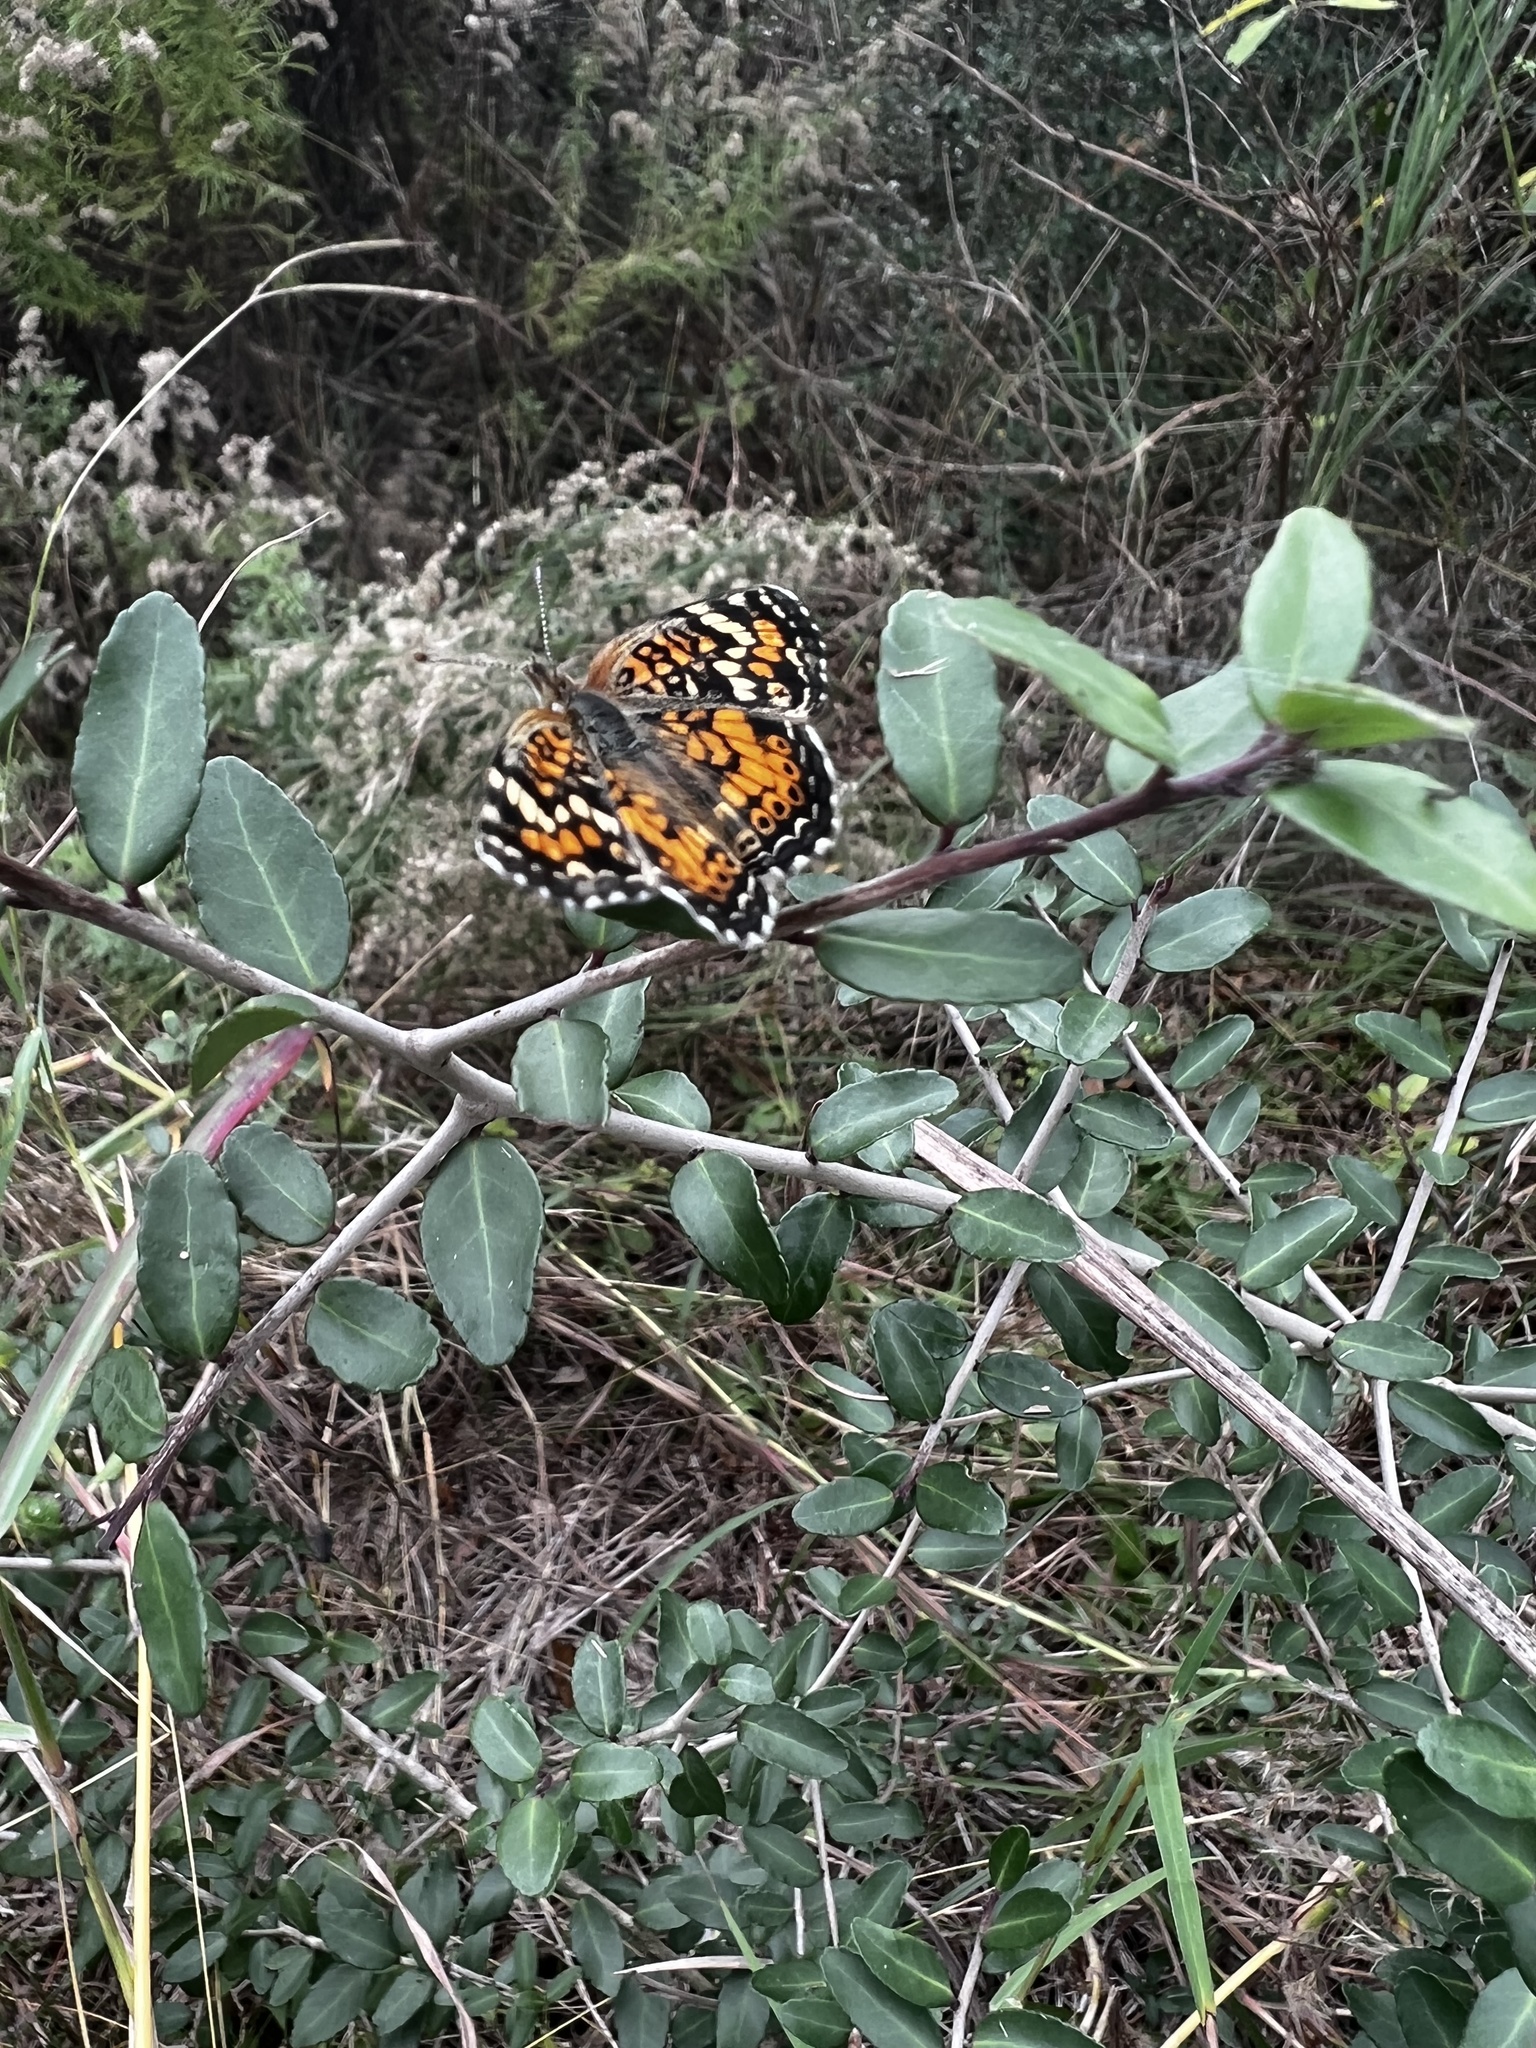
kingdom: Animalia
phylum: Arthropoda
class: Insecta
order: Lepidoptera
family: Nymphalidae
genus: Phyciodes
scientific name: Phyciodes phaon
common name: Phaon crescent
